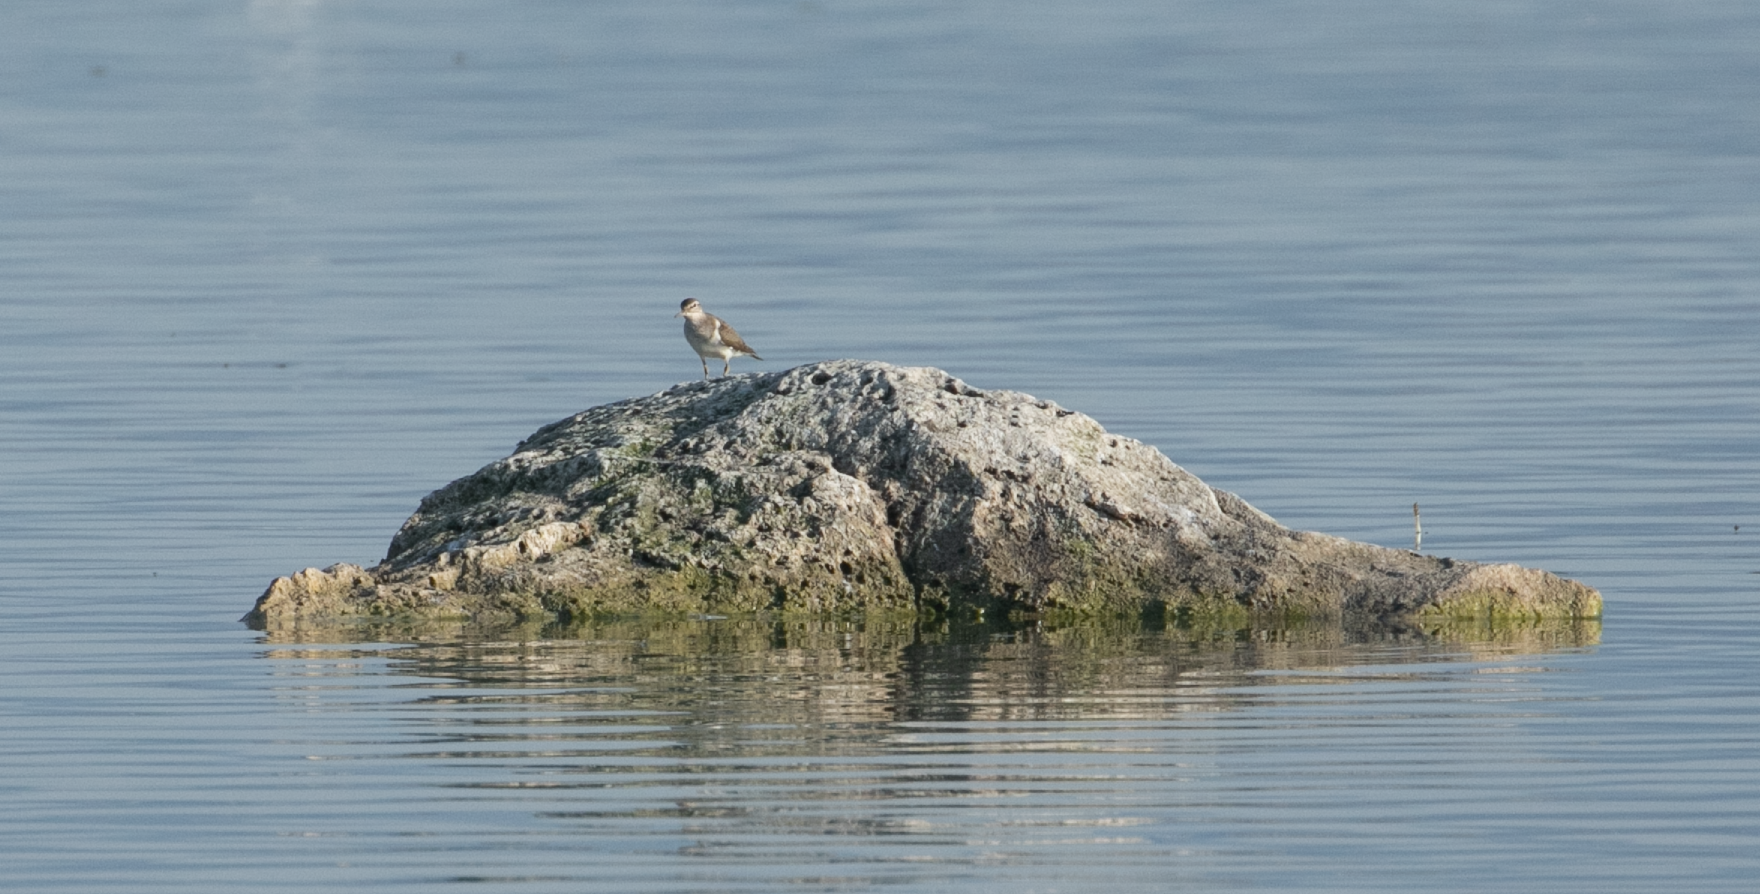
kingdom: Animalia
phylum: Chordata
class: Aves
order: Charadriiformes
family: Scolopacidae
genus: Actitis
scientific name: Actitis hypoleucos
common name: Common sandpiper
